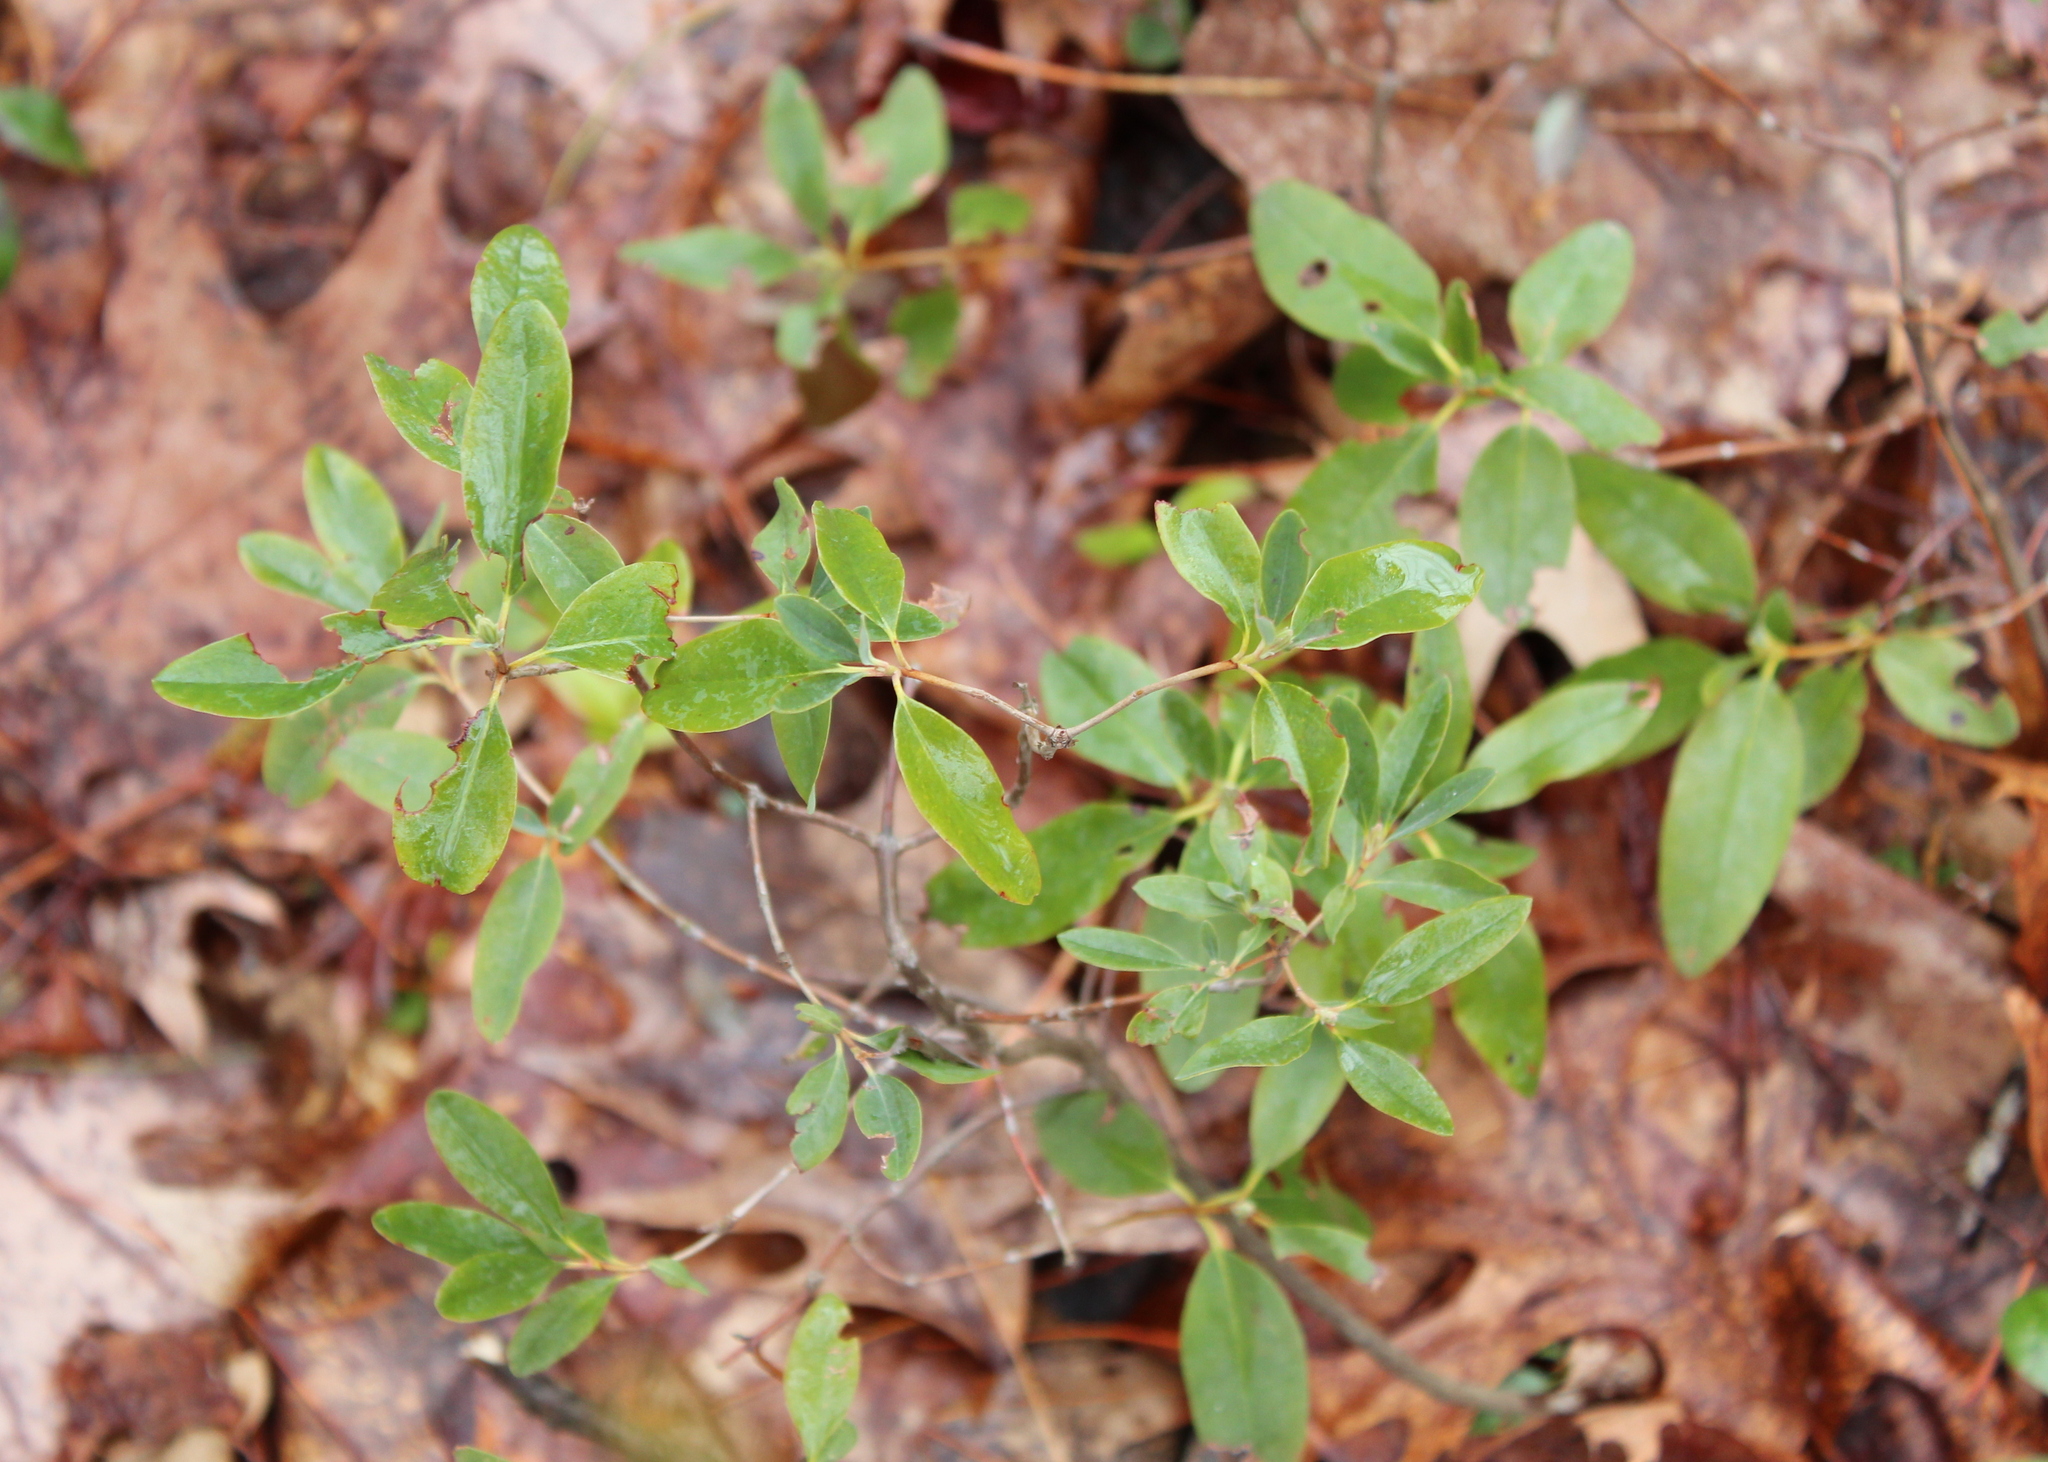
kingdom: Plantae
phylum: Tracheophyta
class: Magnoliopsida
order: Ericales
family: Ericaceae
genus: Kalmia
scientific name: Kalmia angustifolia
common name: Sheep-laurel
